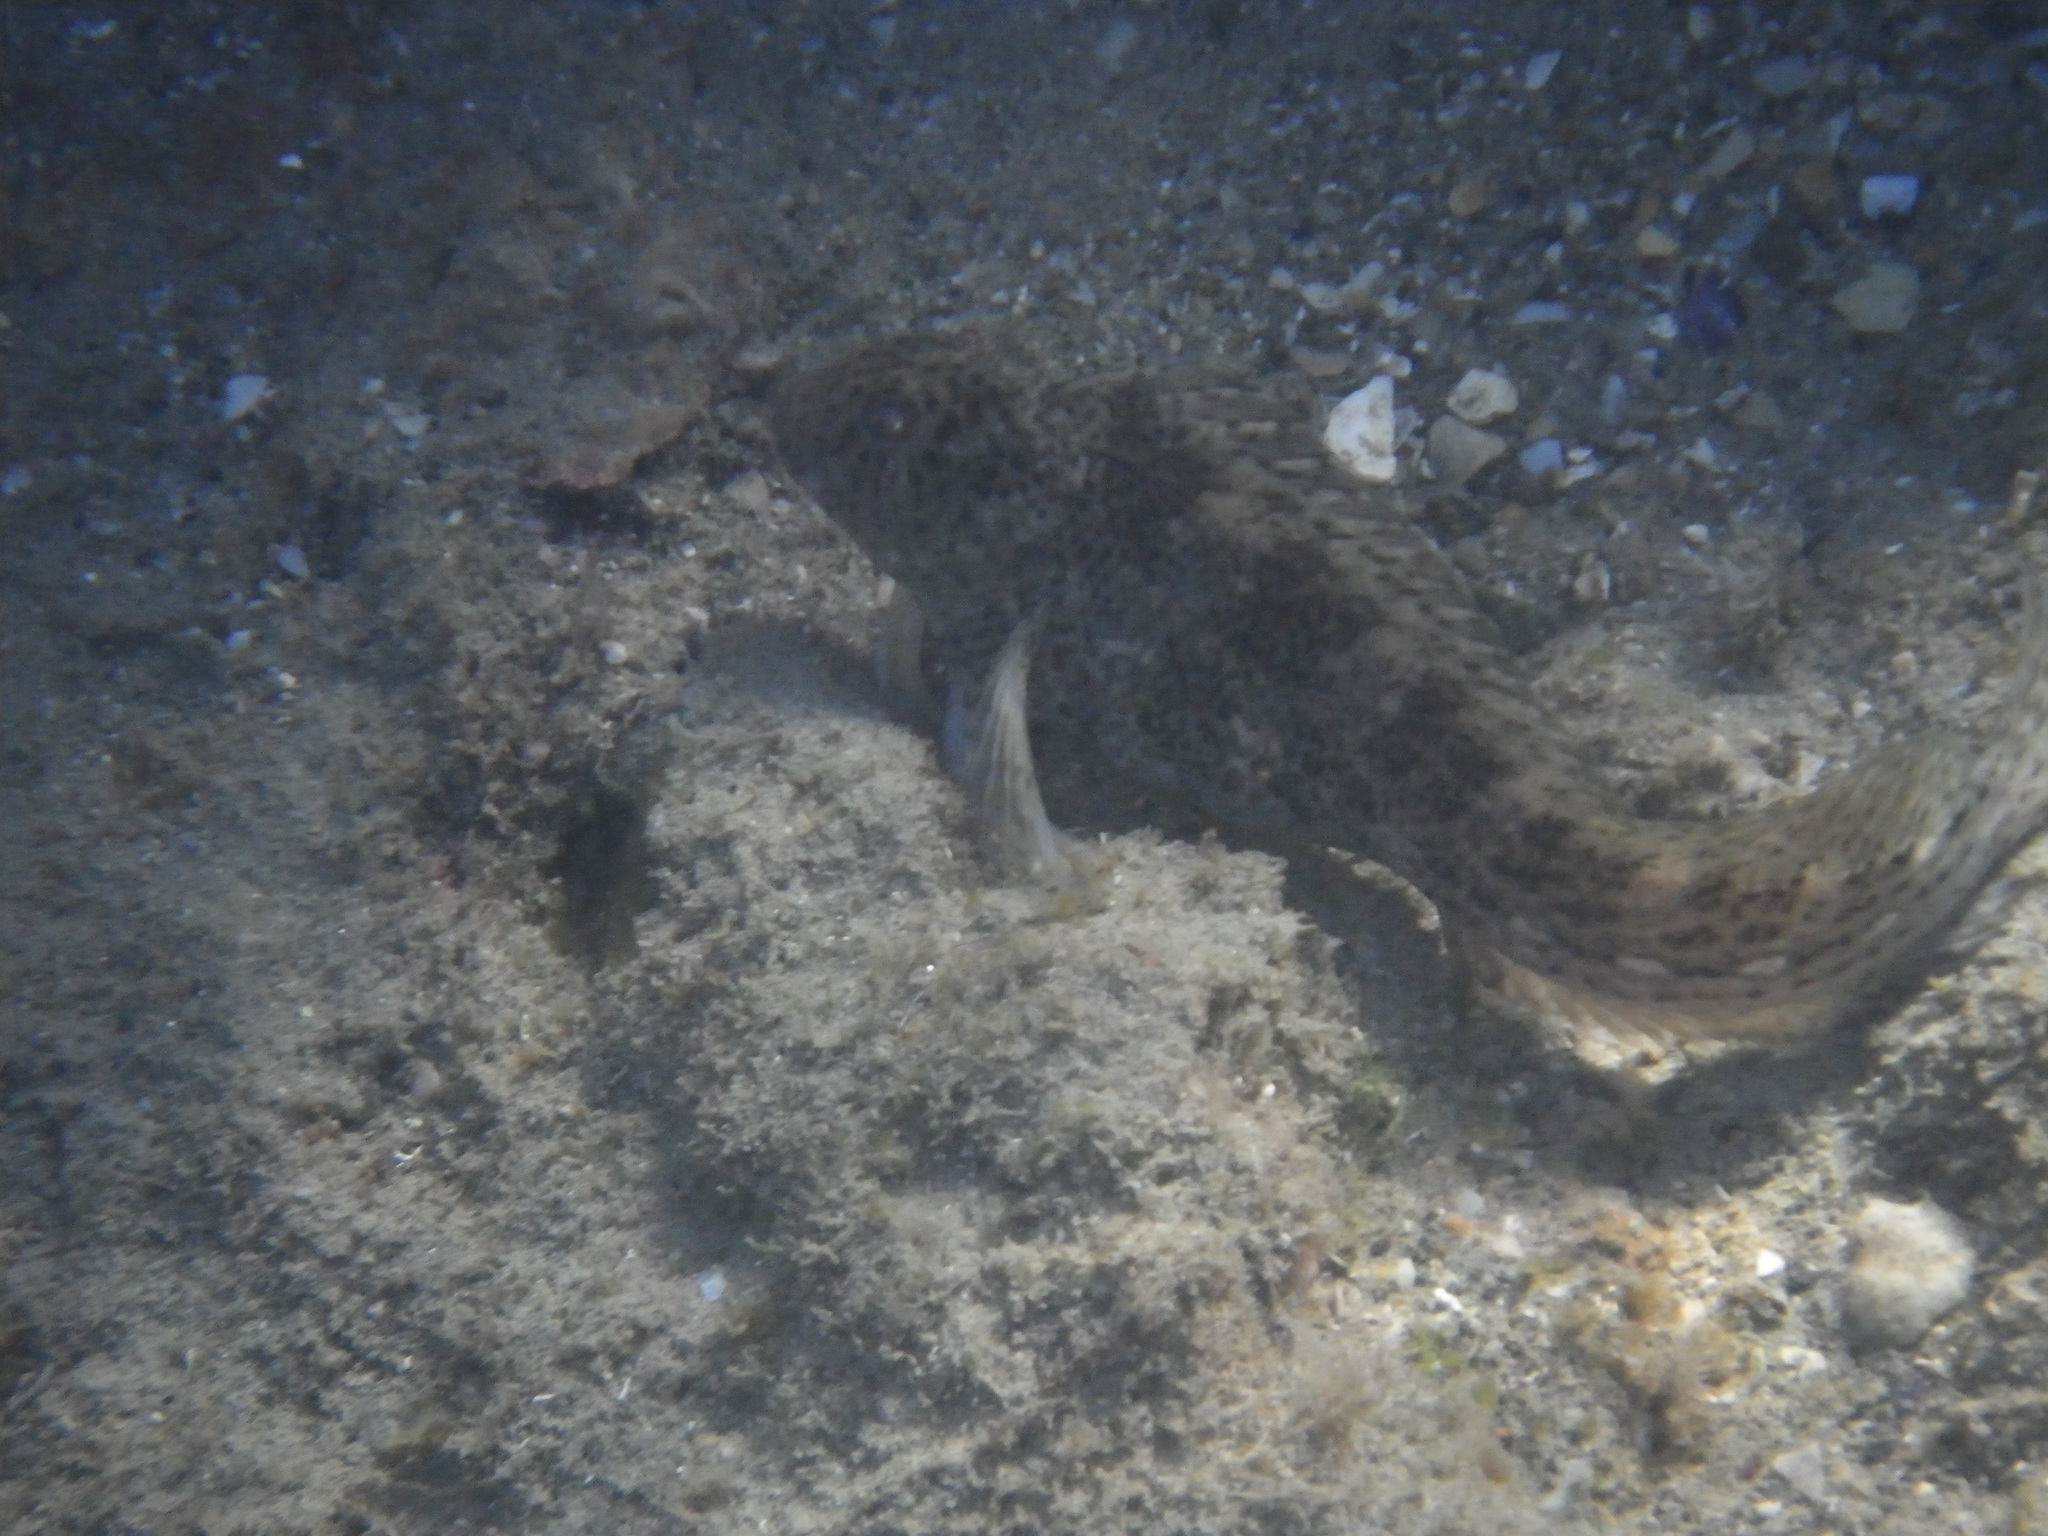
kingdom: Animalia
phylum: Chordata
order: Perciformes
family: Blenniidae
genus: Parablennius
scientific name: Parablennius sanguinolentus
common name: Black sea blenny
